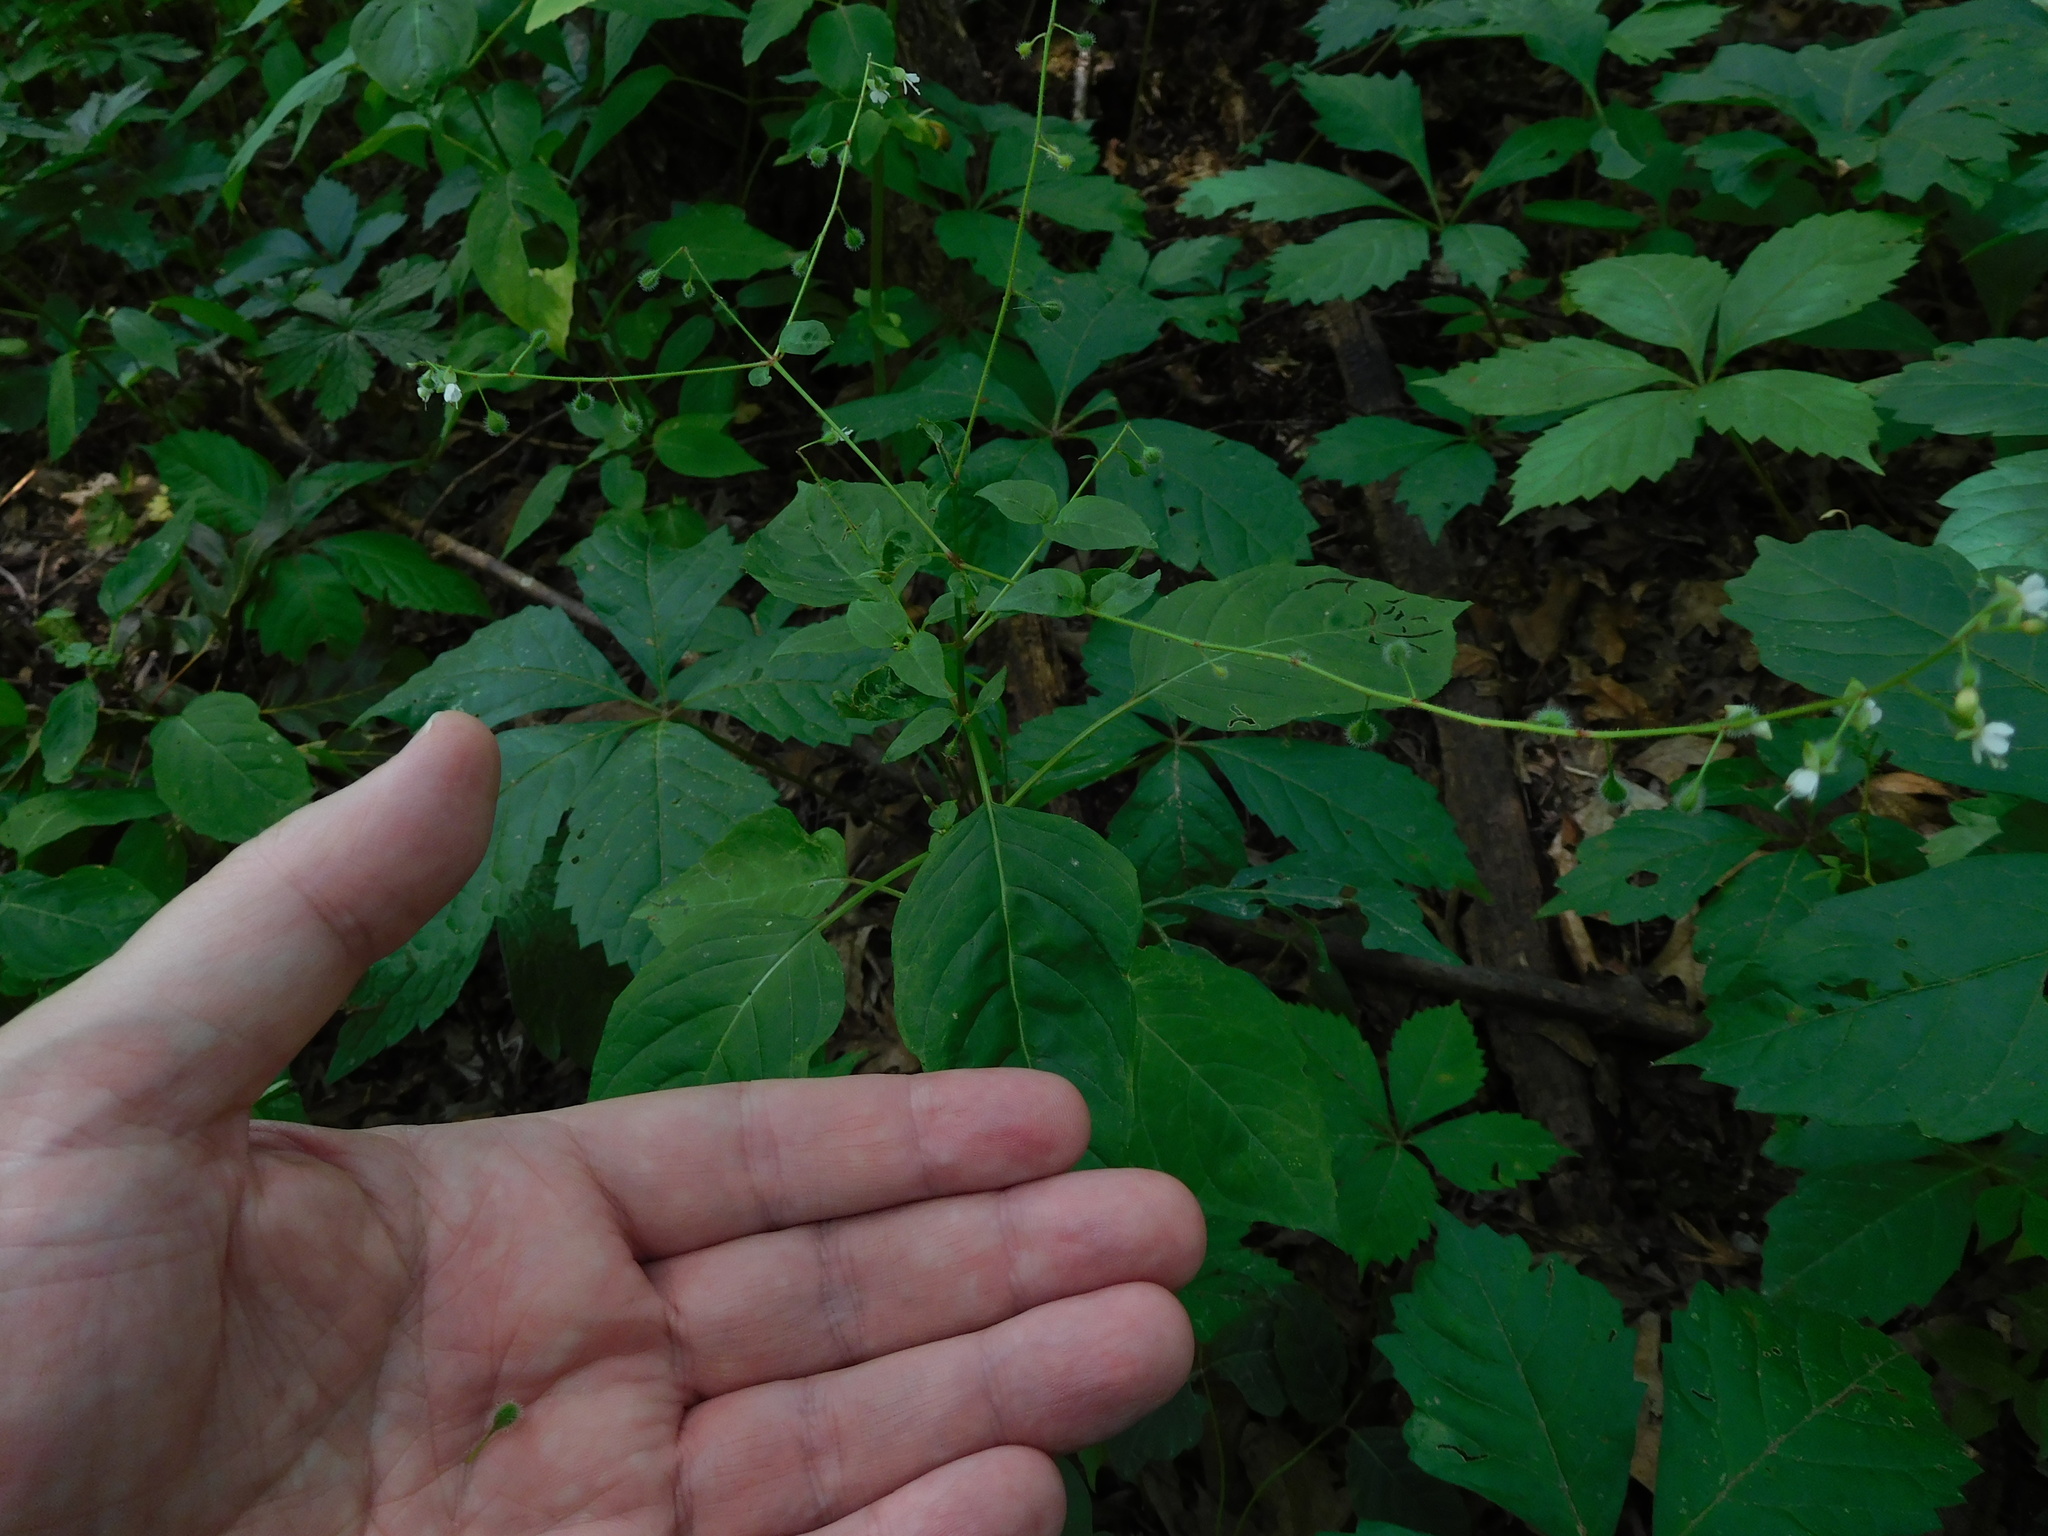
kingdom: Plantae
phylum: Tracheophyta
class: Magnoliopsida
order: Myrtales
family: Onagraceae
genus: Circaea
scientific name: Circaea canadensis
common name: Broad-leaved enchanter's nightshade
